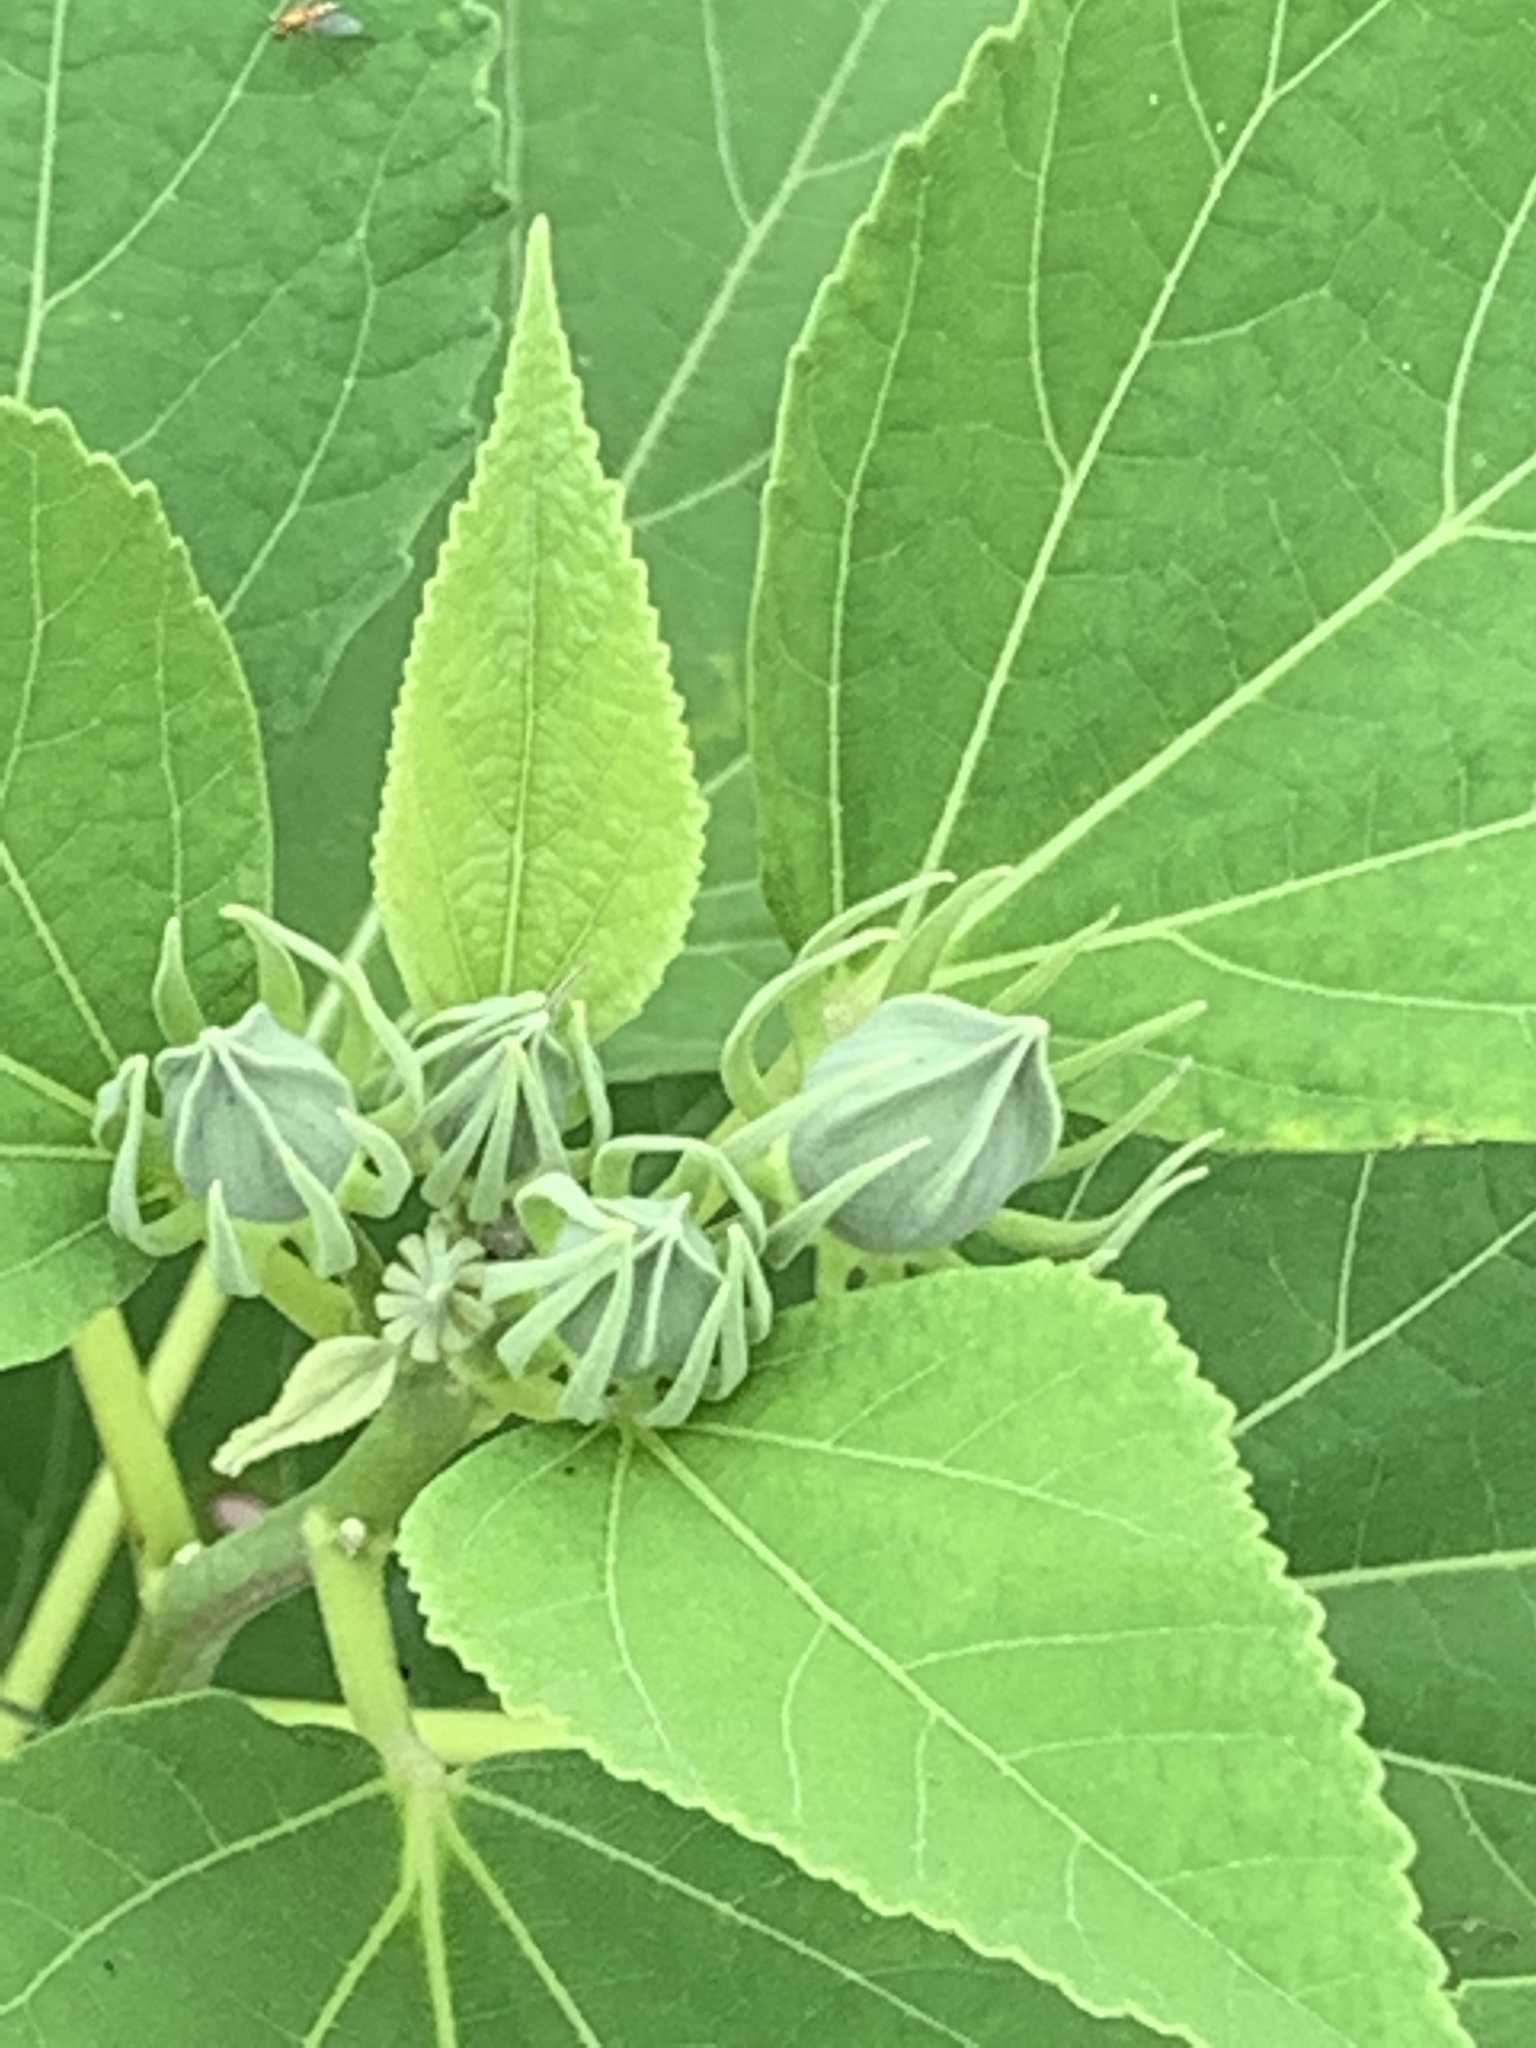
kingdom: Plantae
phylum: Tracheophyta
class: Magnoliopsida
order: Malvales
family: Malvaceae
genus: Hibiscus
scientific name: Hibiscus moscheutos
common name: Common rose-mallow
